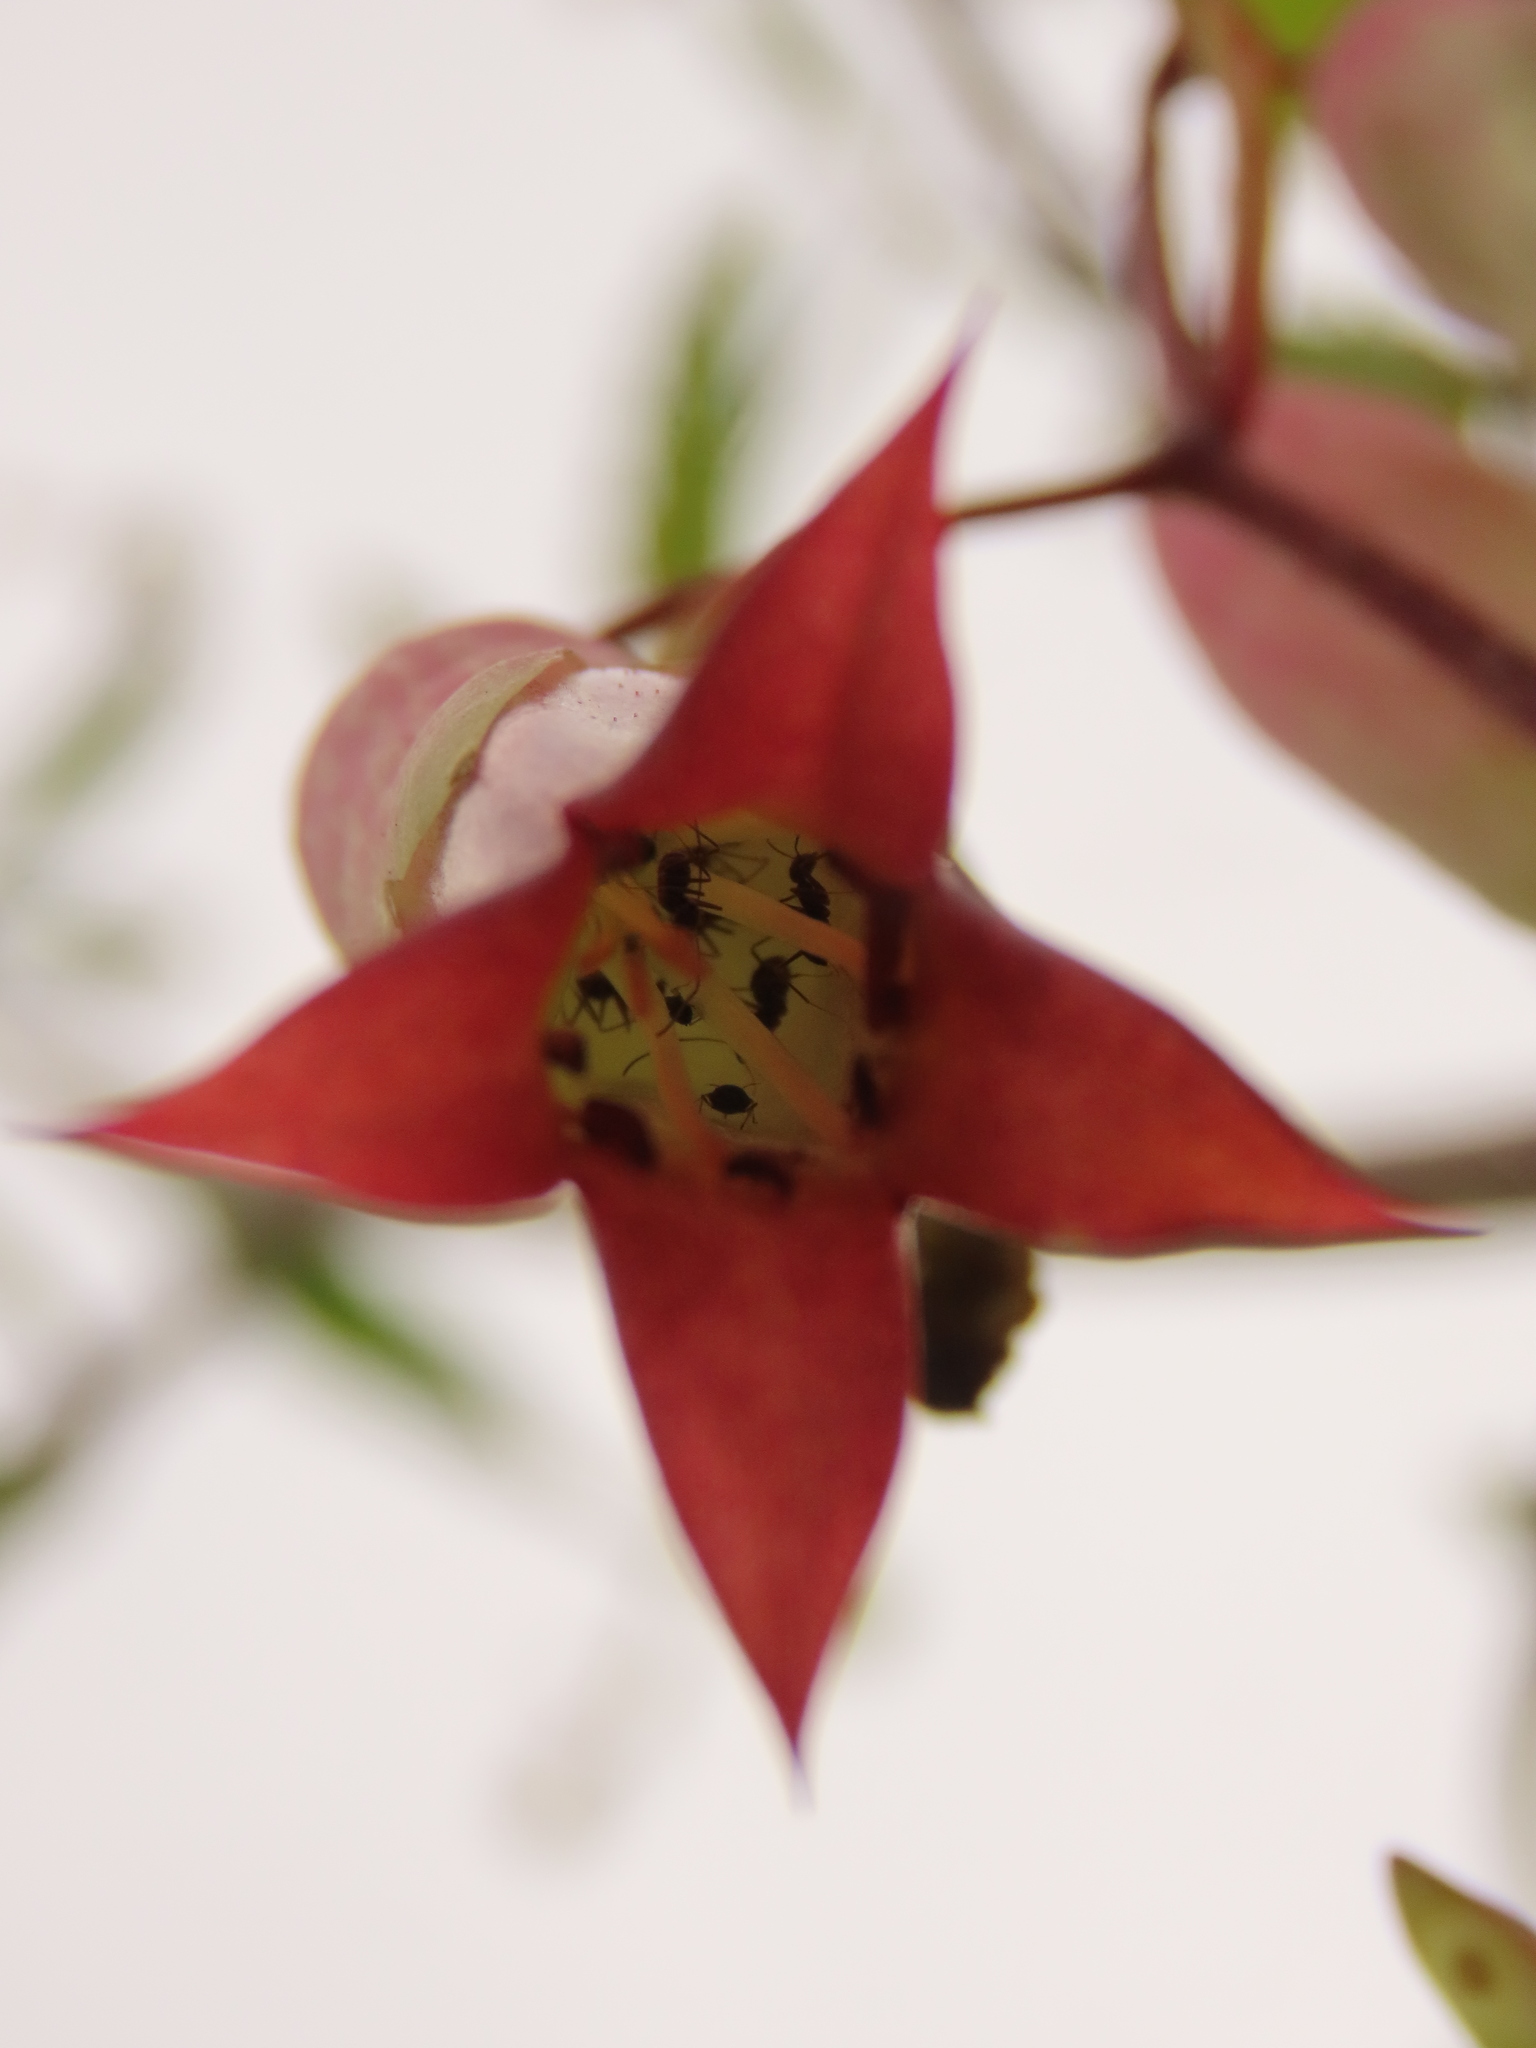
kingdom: Plantae
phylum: Tracheophyta
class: Magnoliopsida
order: Saxifragales
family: Crassulaceae
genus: Kalanchoe
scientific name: Kalanchoe pinnata
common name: Cathedral bells
